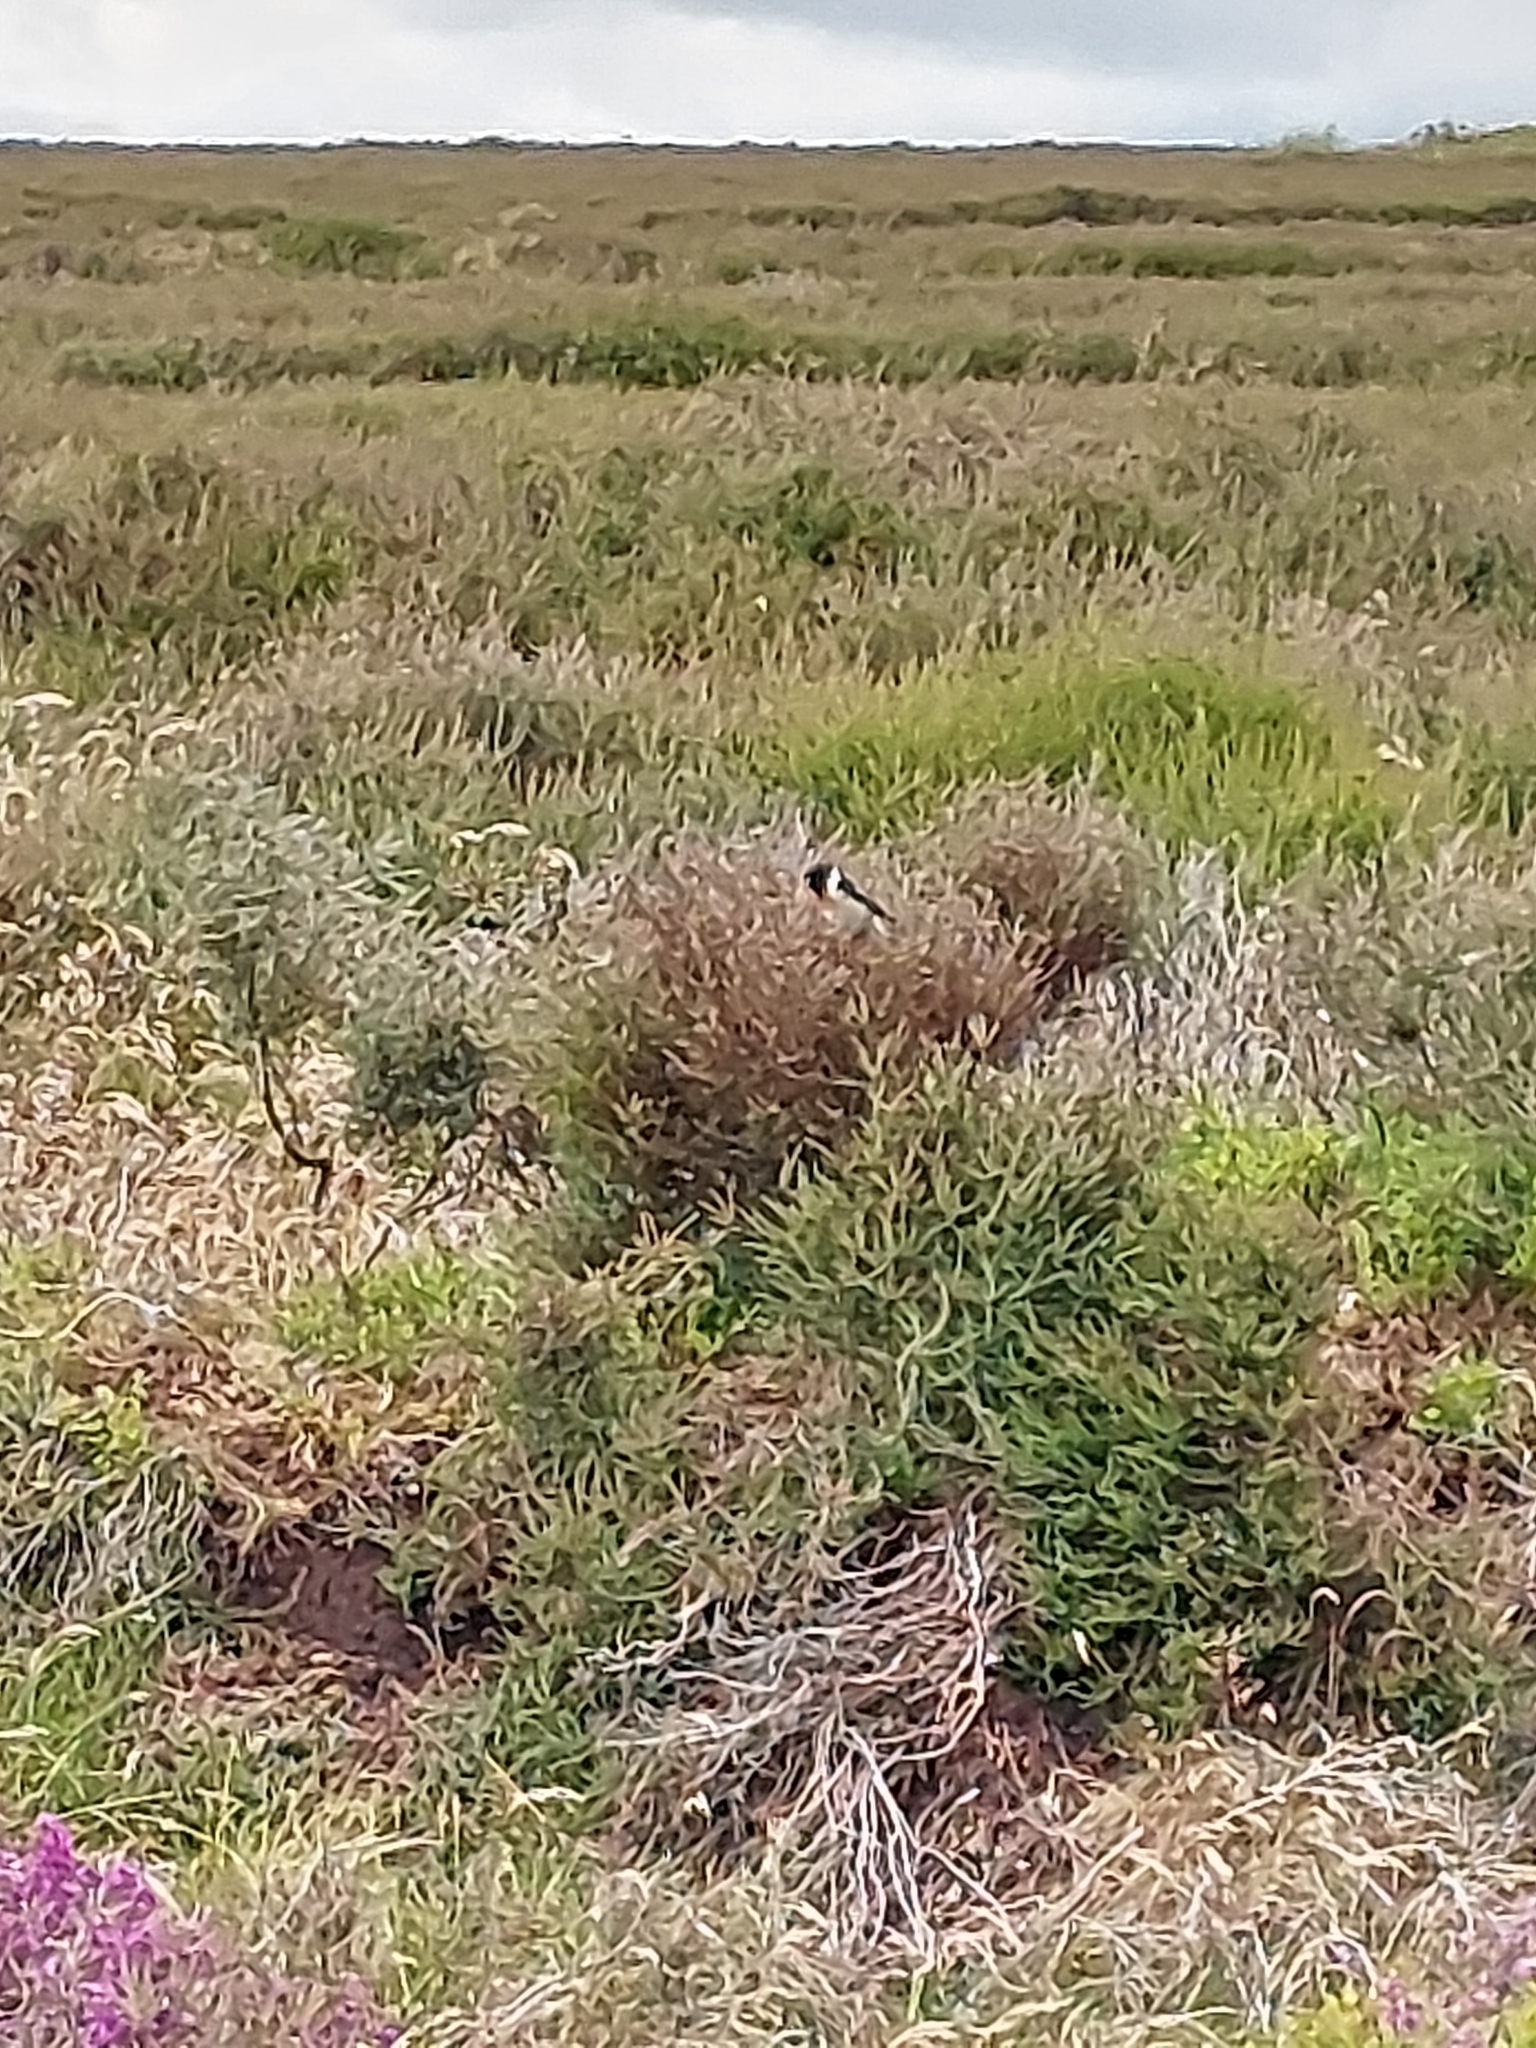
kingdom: Animalia
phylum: Chordata
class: Aves
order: Passeriformes
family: Muscicapidae
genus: Saxicola
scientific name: Saxicola rubicola
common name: European stonechat
